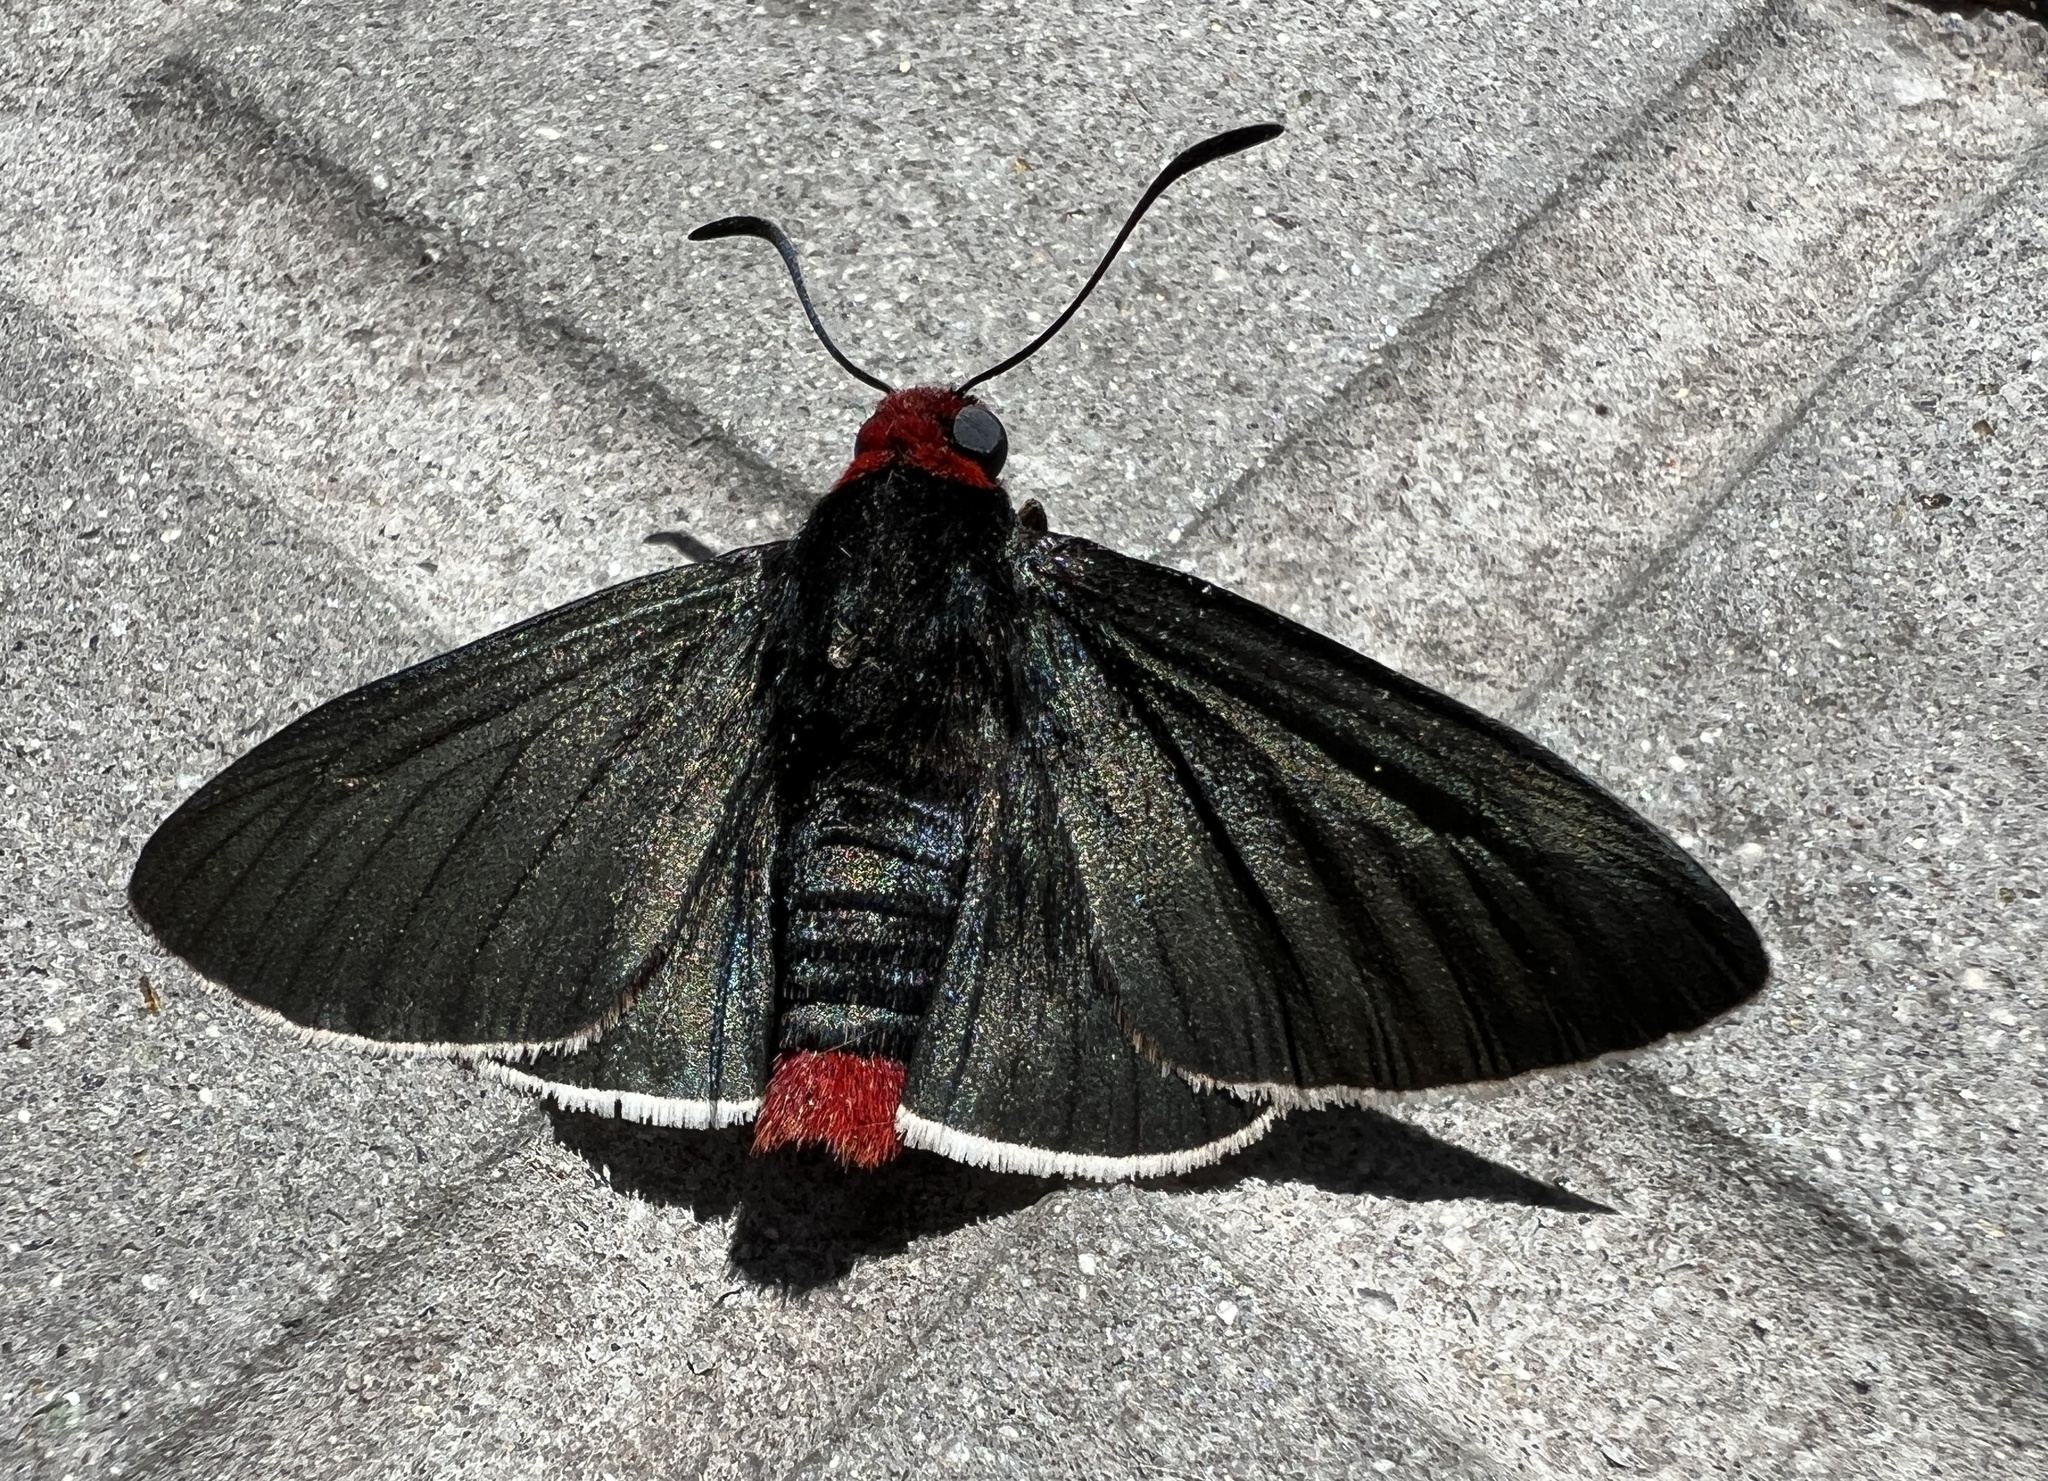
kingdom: Animalia
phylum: Arthropoda
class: Insecta
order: Lepidoptera
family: Hesperiidae
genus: Pyrrhopyge
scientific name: Pyrrhopyge charybdis
